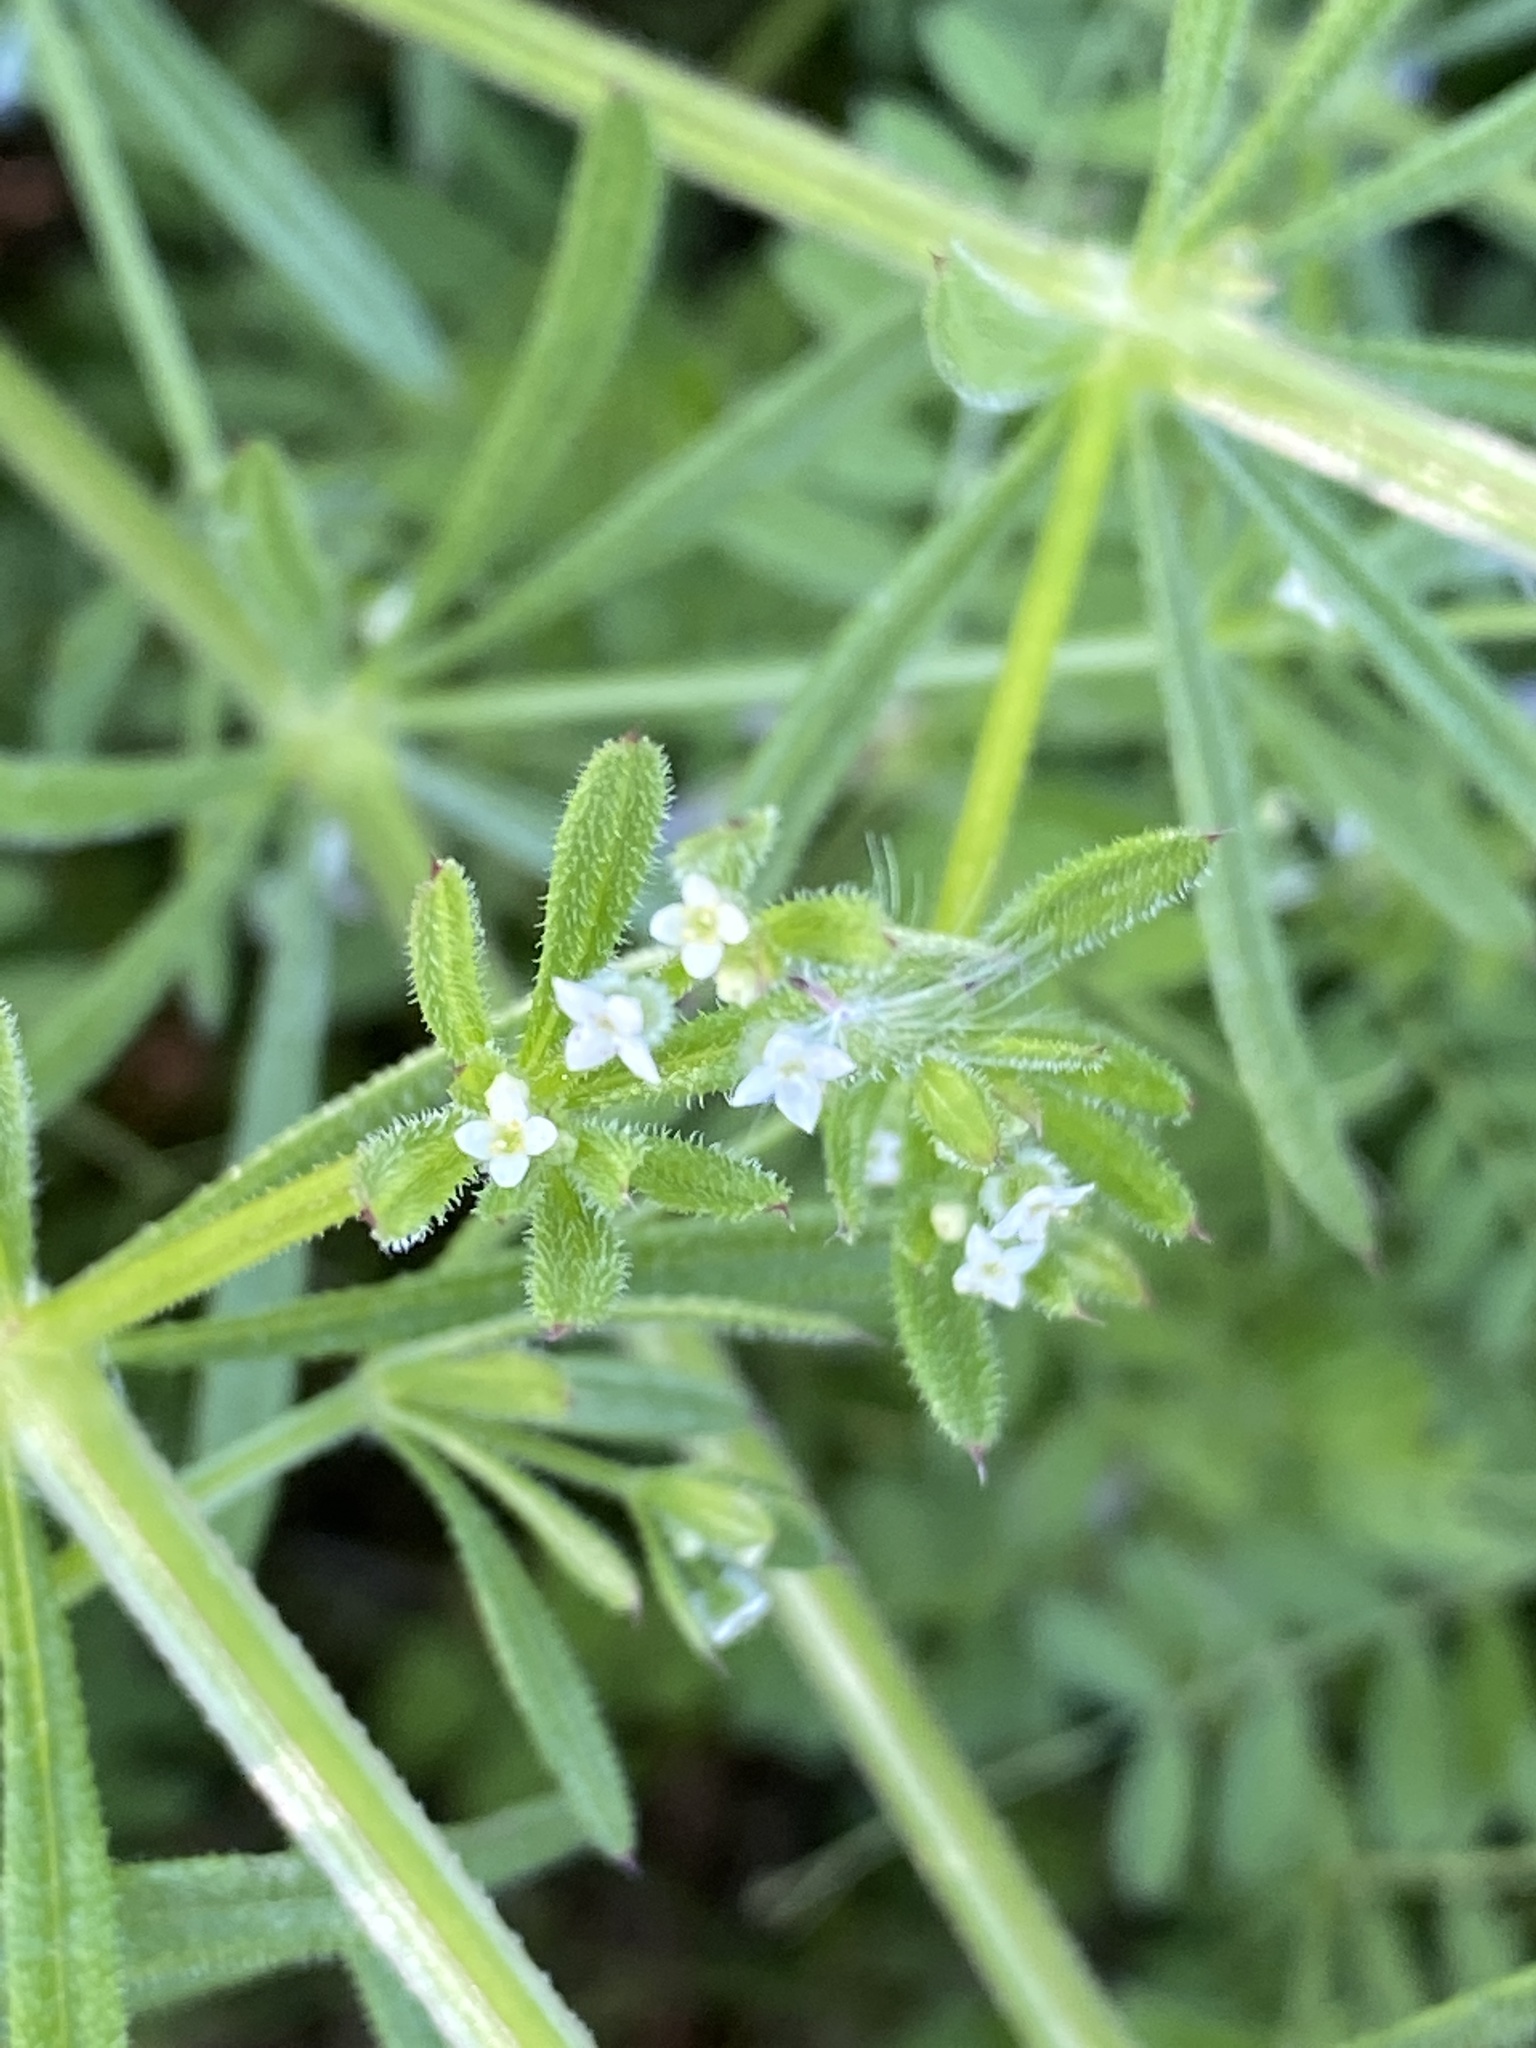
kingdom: Plantae
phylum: Tracheophyta
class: Magnoliopsida
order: Gentianales
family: Rubiaceae
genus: Galium
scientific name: Galium aparine
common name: Cleavers
